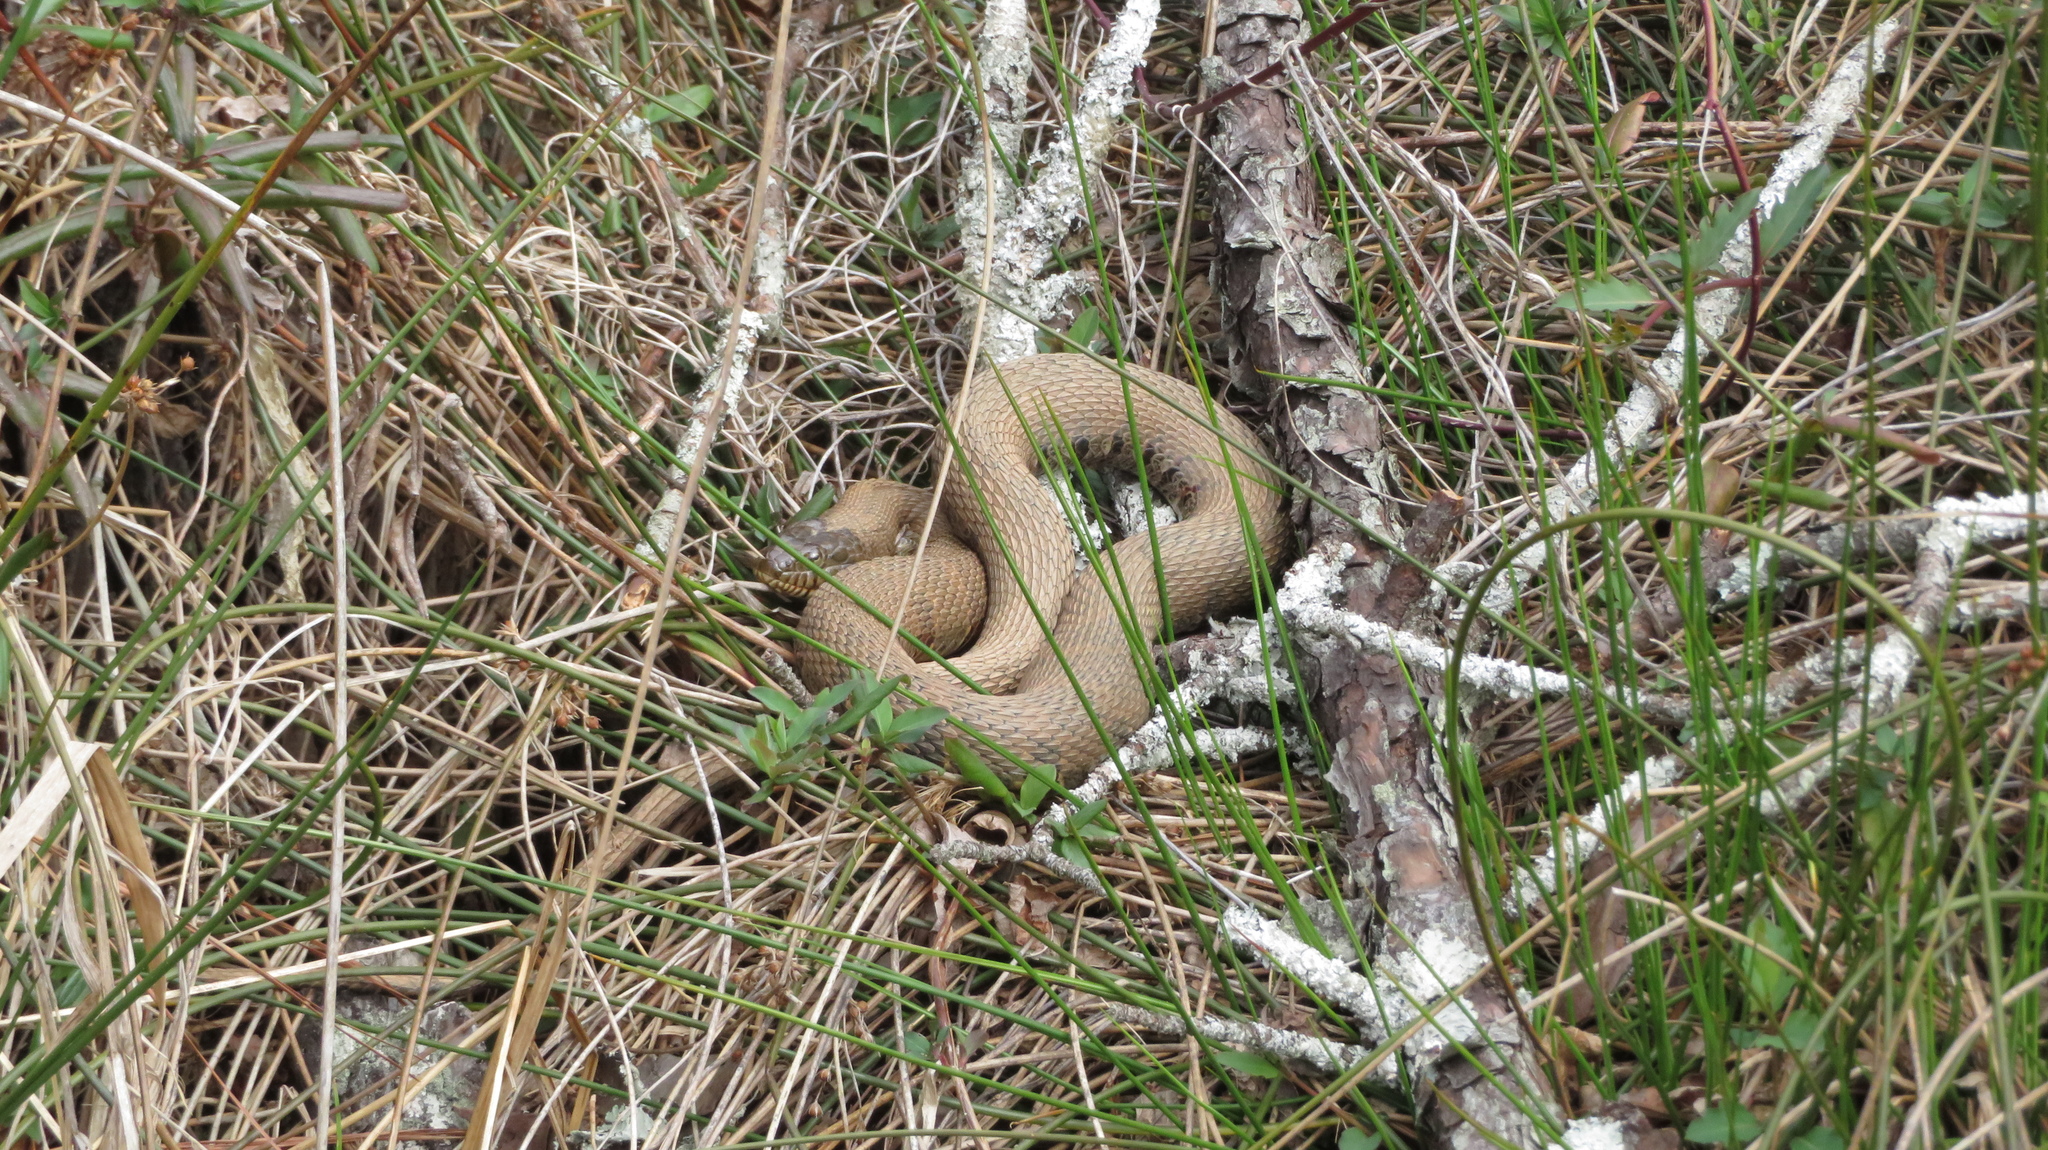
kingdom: Animalia
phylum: Chordata
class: Squamata
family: Colubridae
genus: Nerodia
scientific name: Nerodia sipedon
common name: Northern water snake
